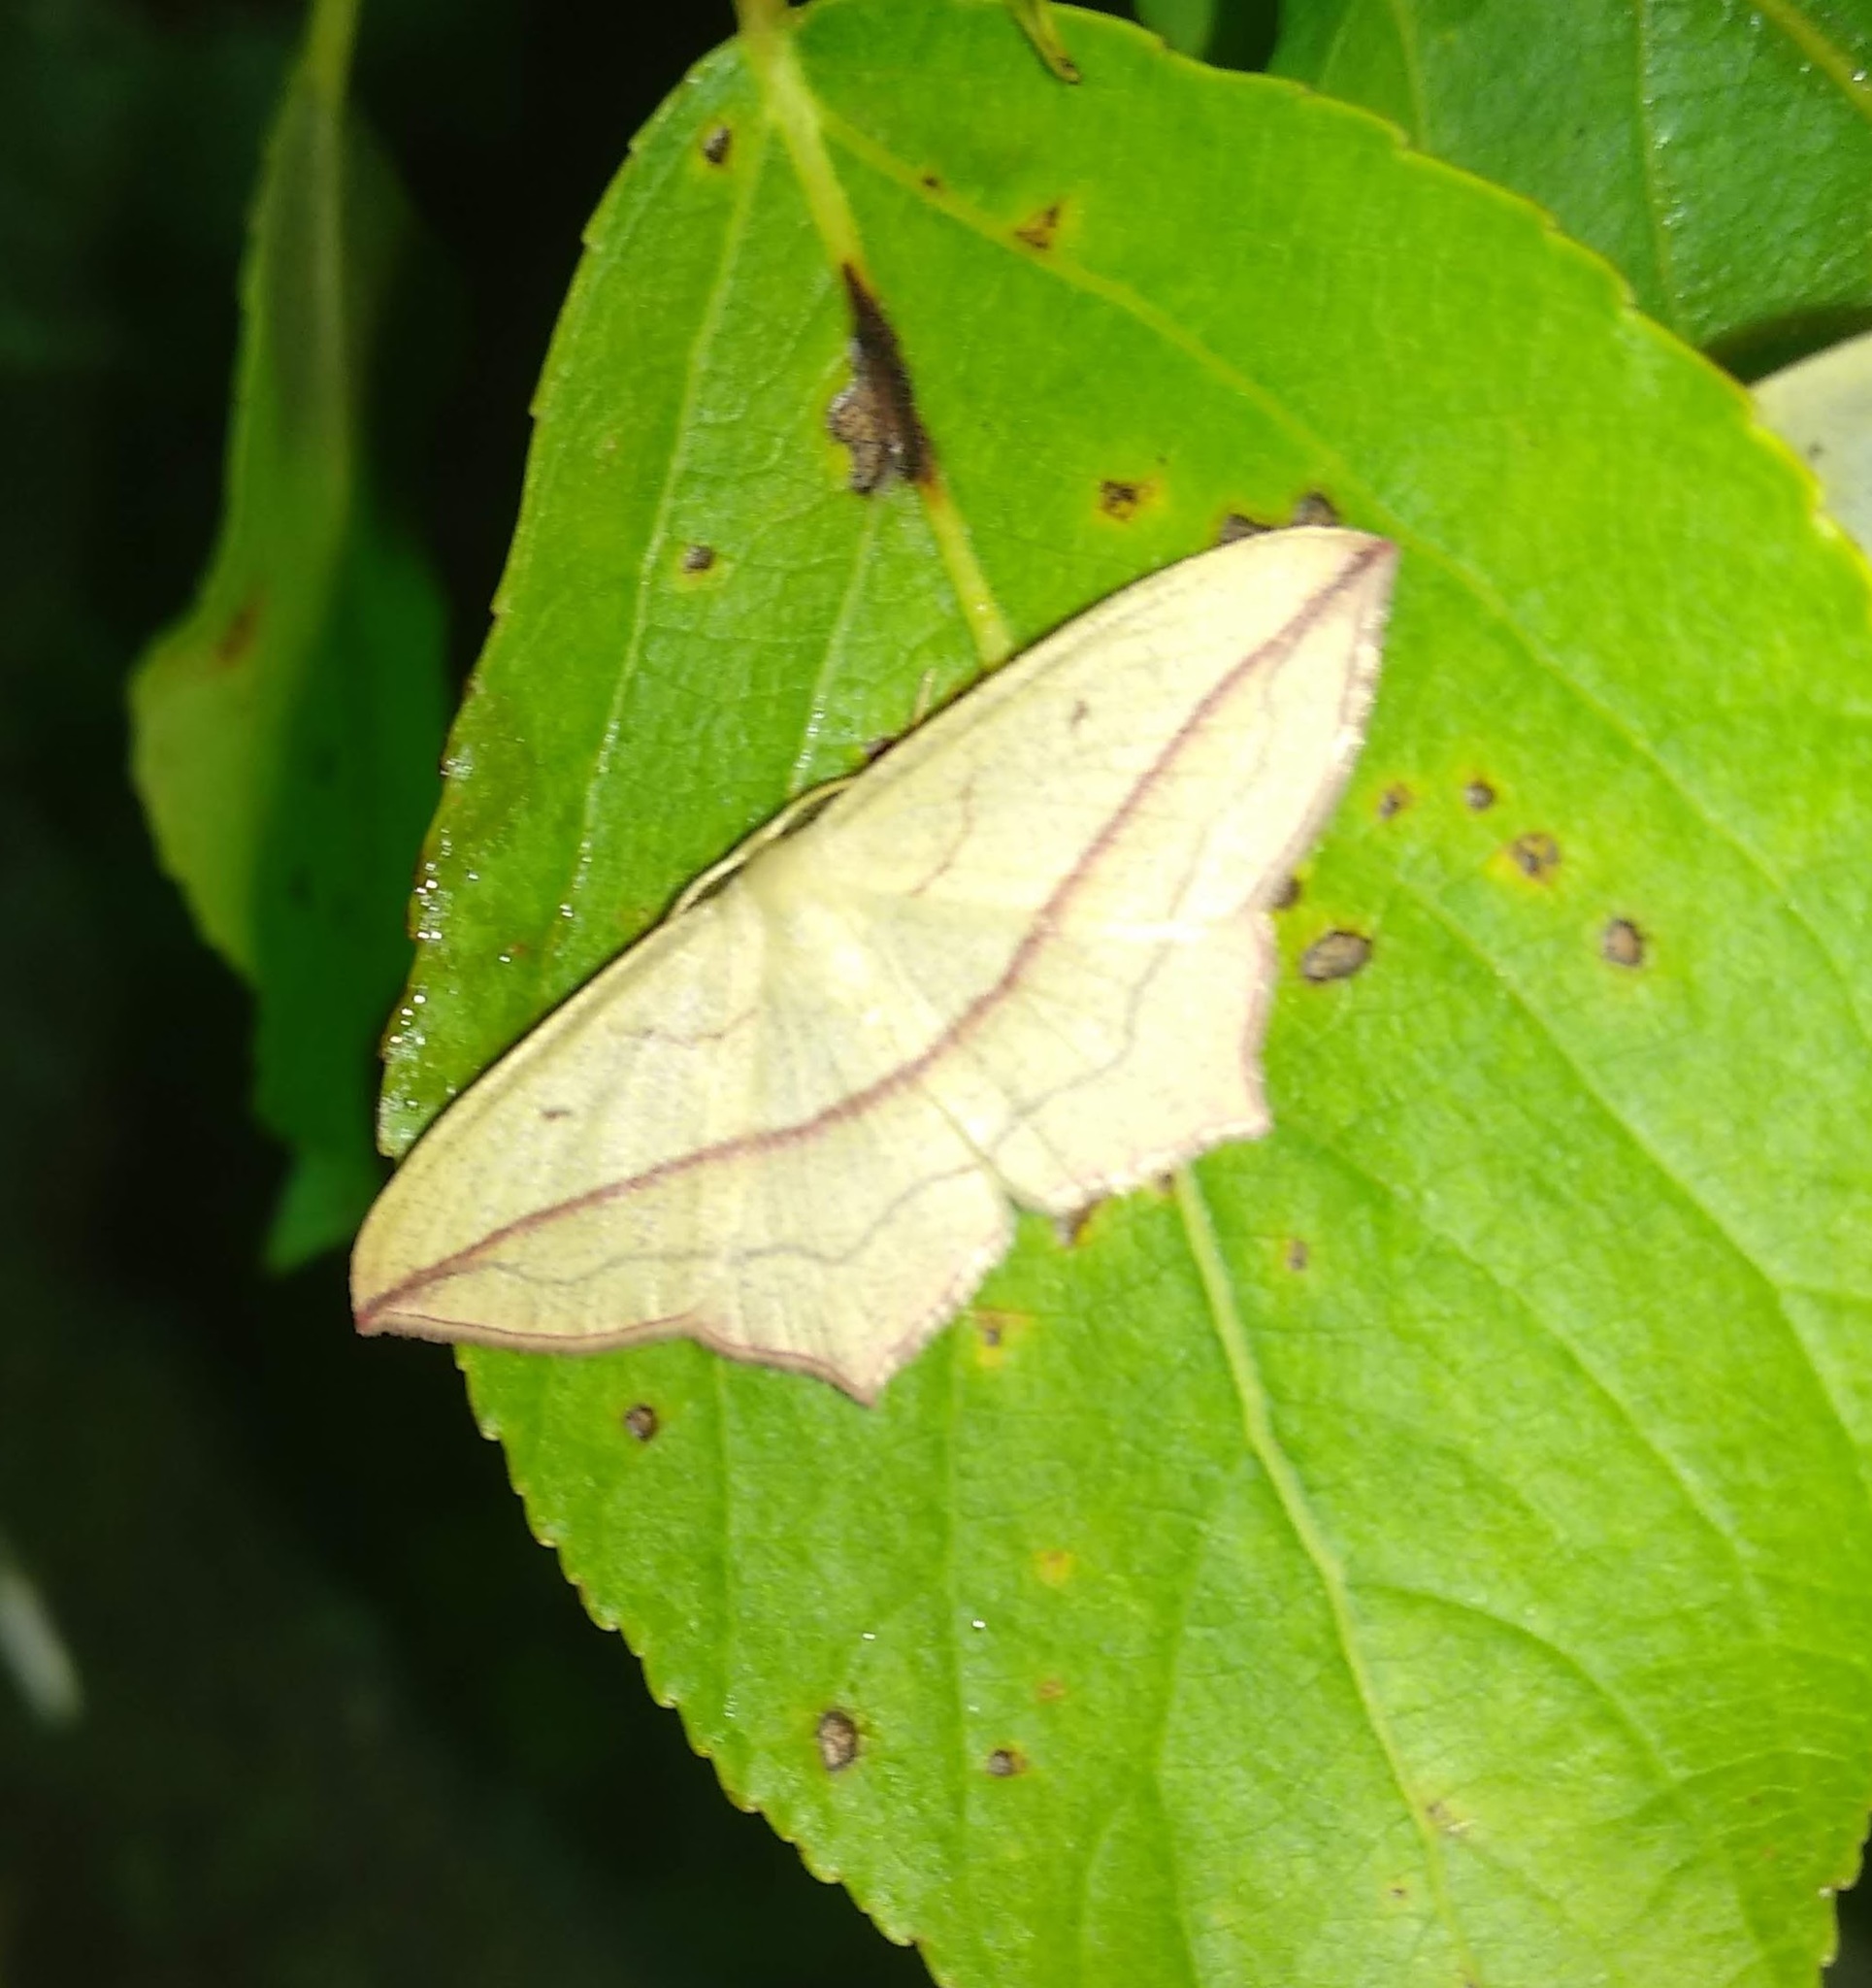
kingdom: Animalia
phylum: Arthropoda
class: Insecta
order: Lepidoptera
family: Geometridae
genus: Timandra
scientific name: Timandra comae
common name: Blood-vein
